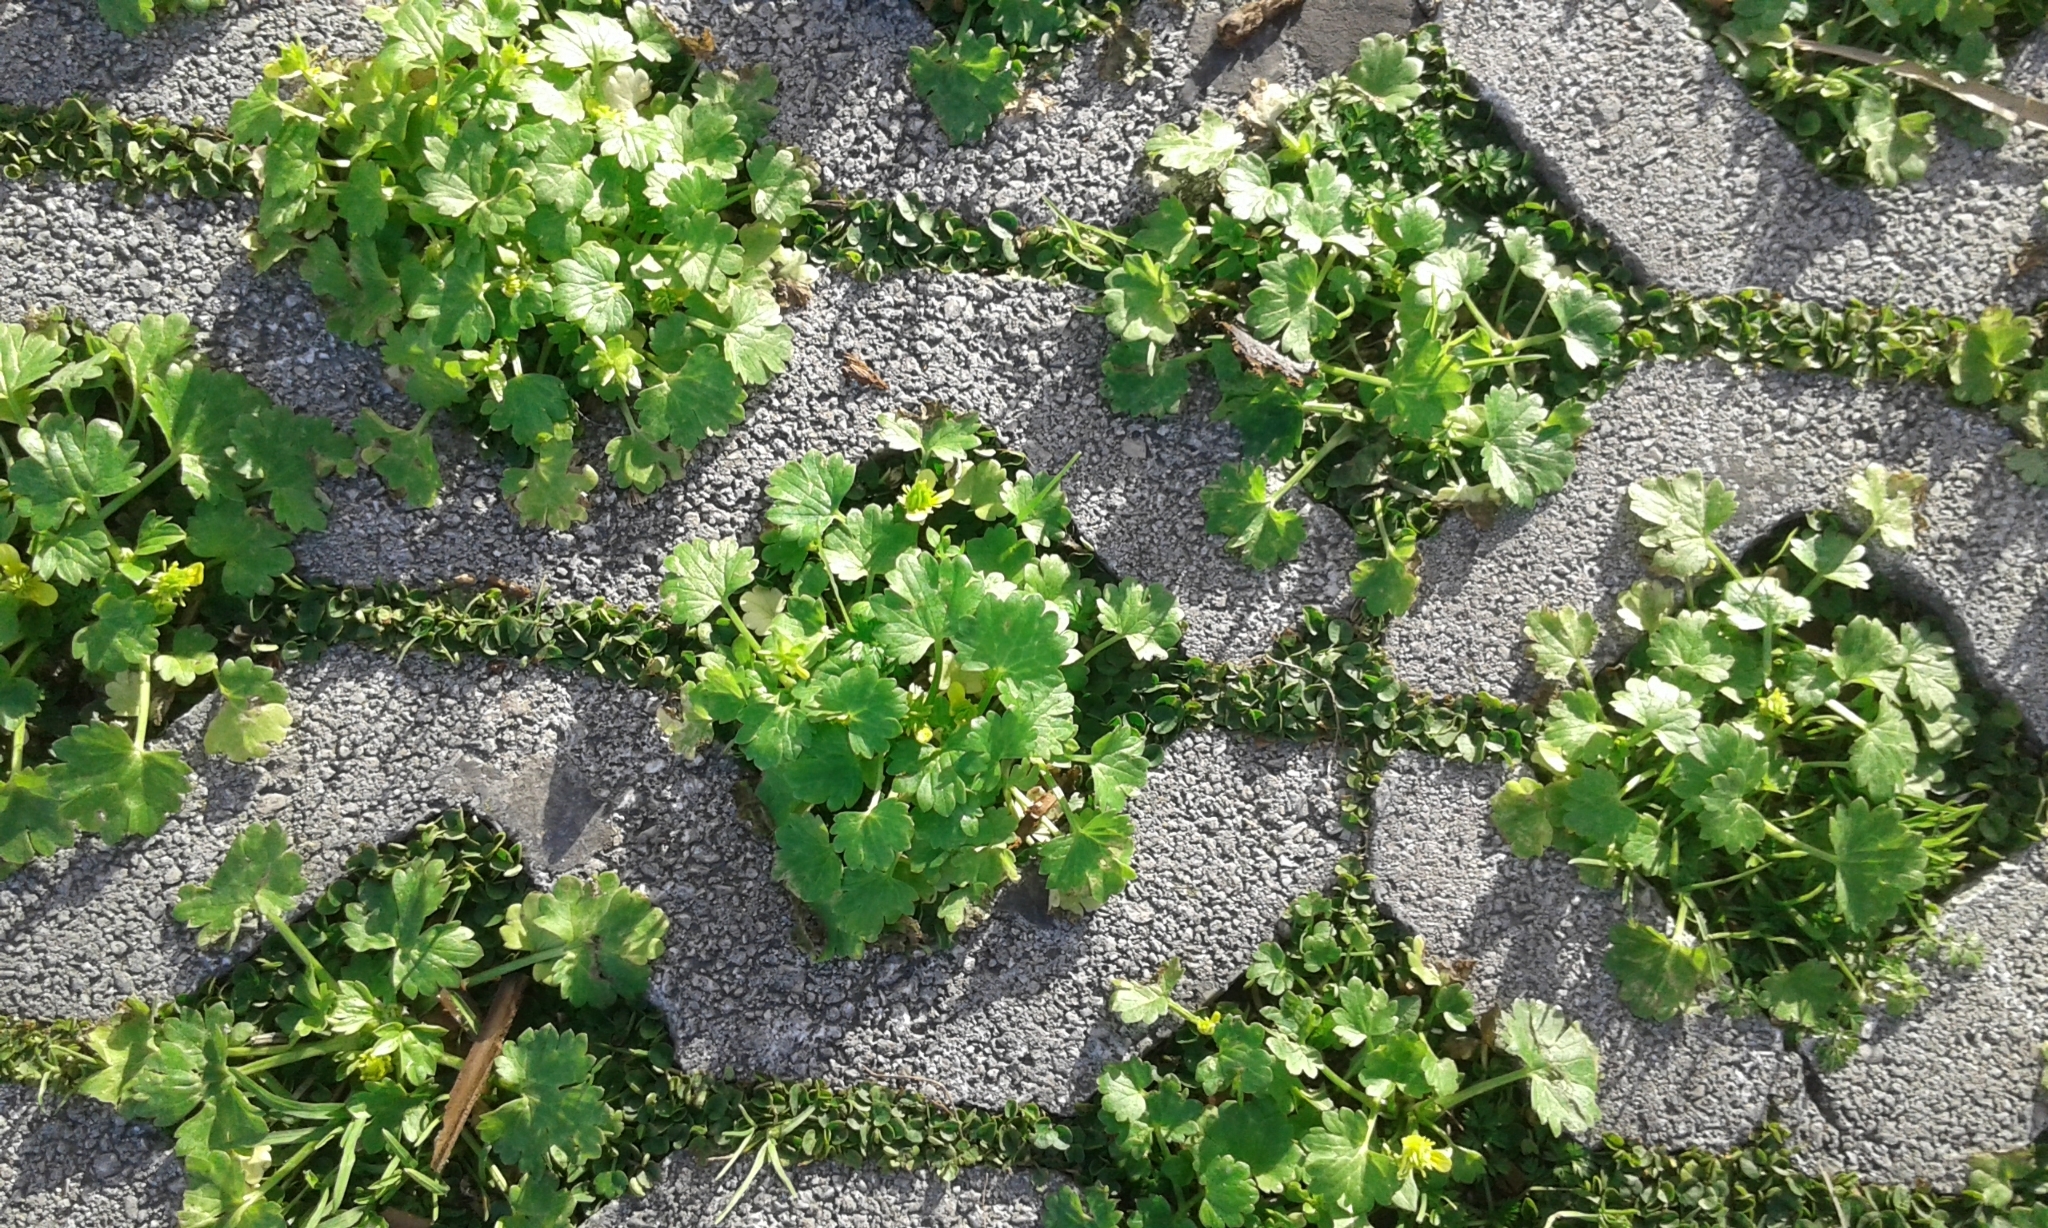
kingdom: Plantae
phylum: Tracheophyta
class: Magnoliopsida
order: Ranunculales
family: Ranunculaceae
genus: Ranunculus
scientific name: Ranunculus muricatus
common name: Rough-fruited buttercup
